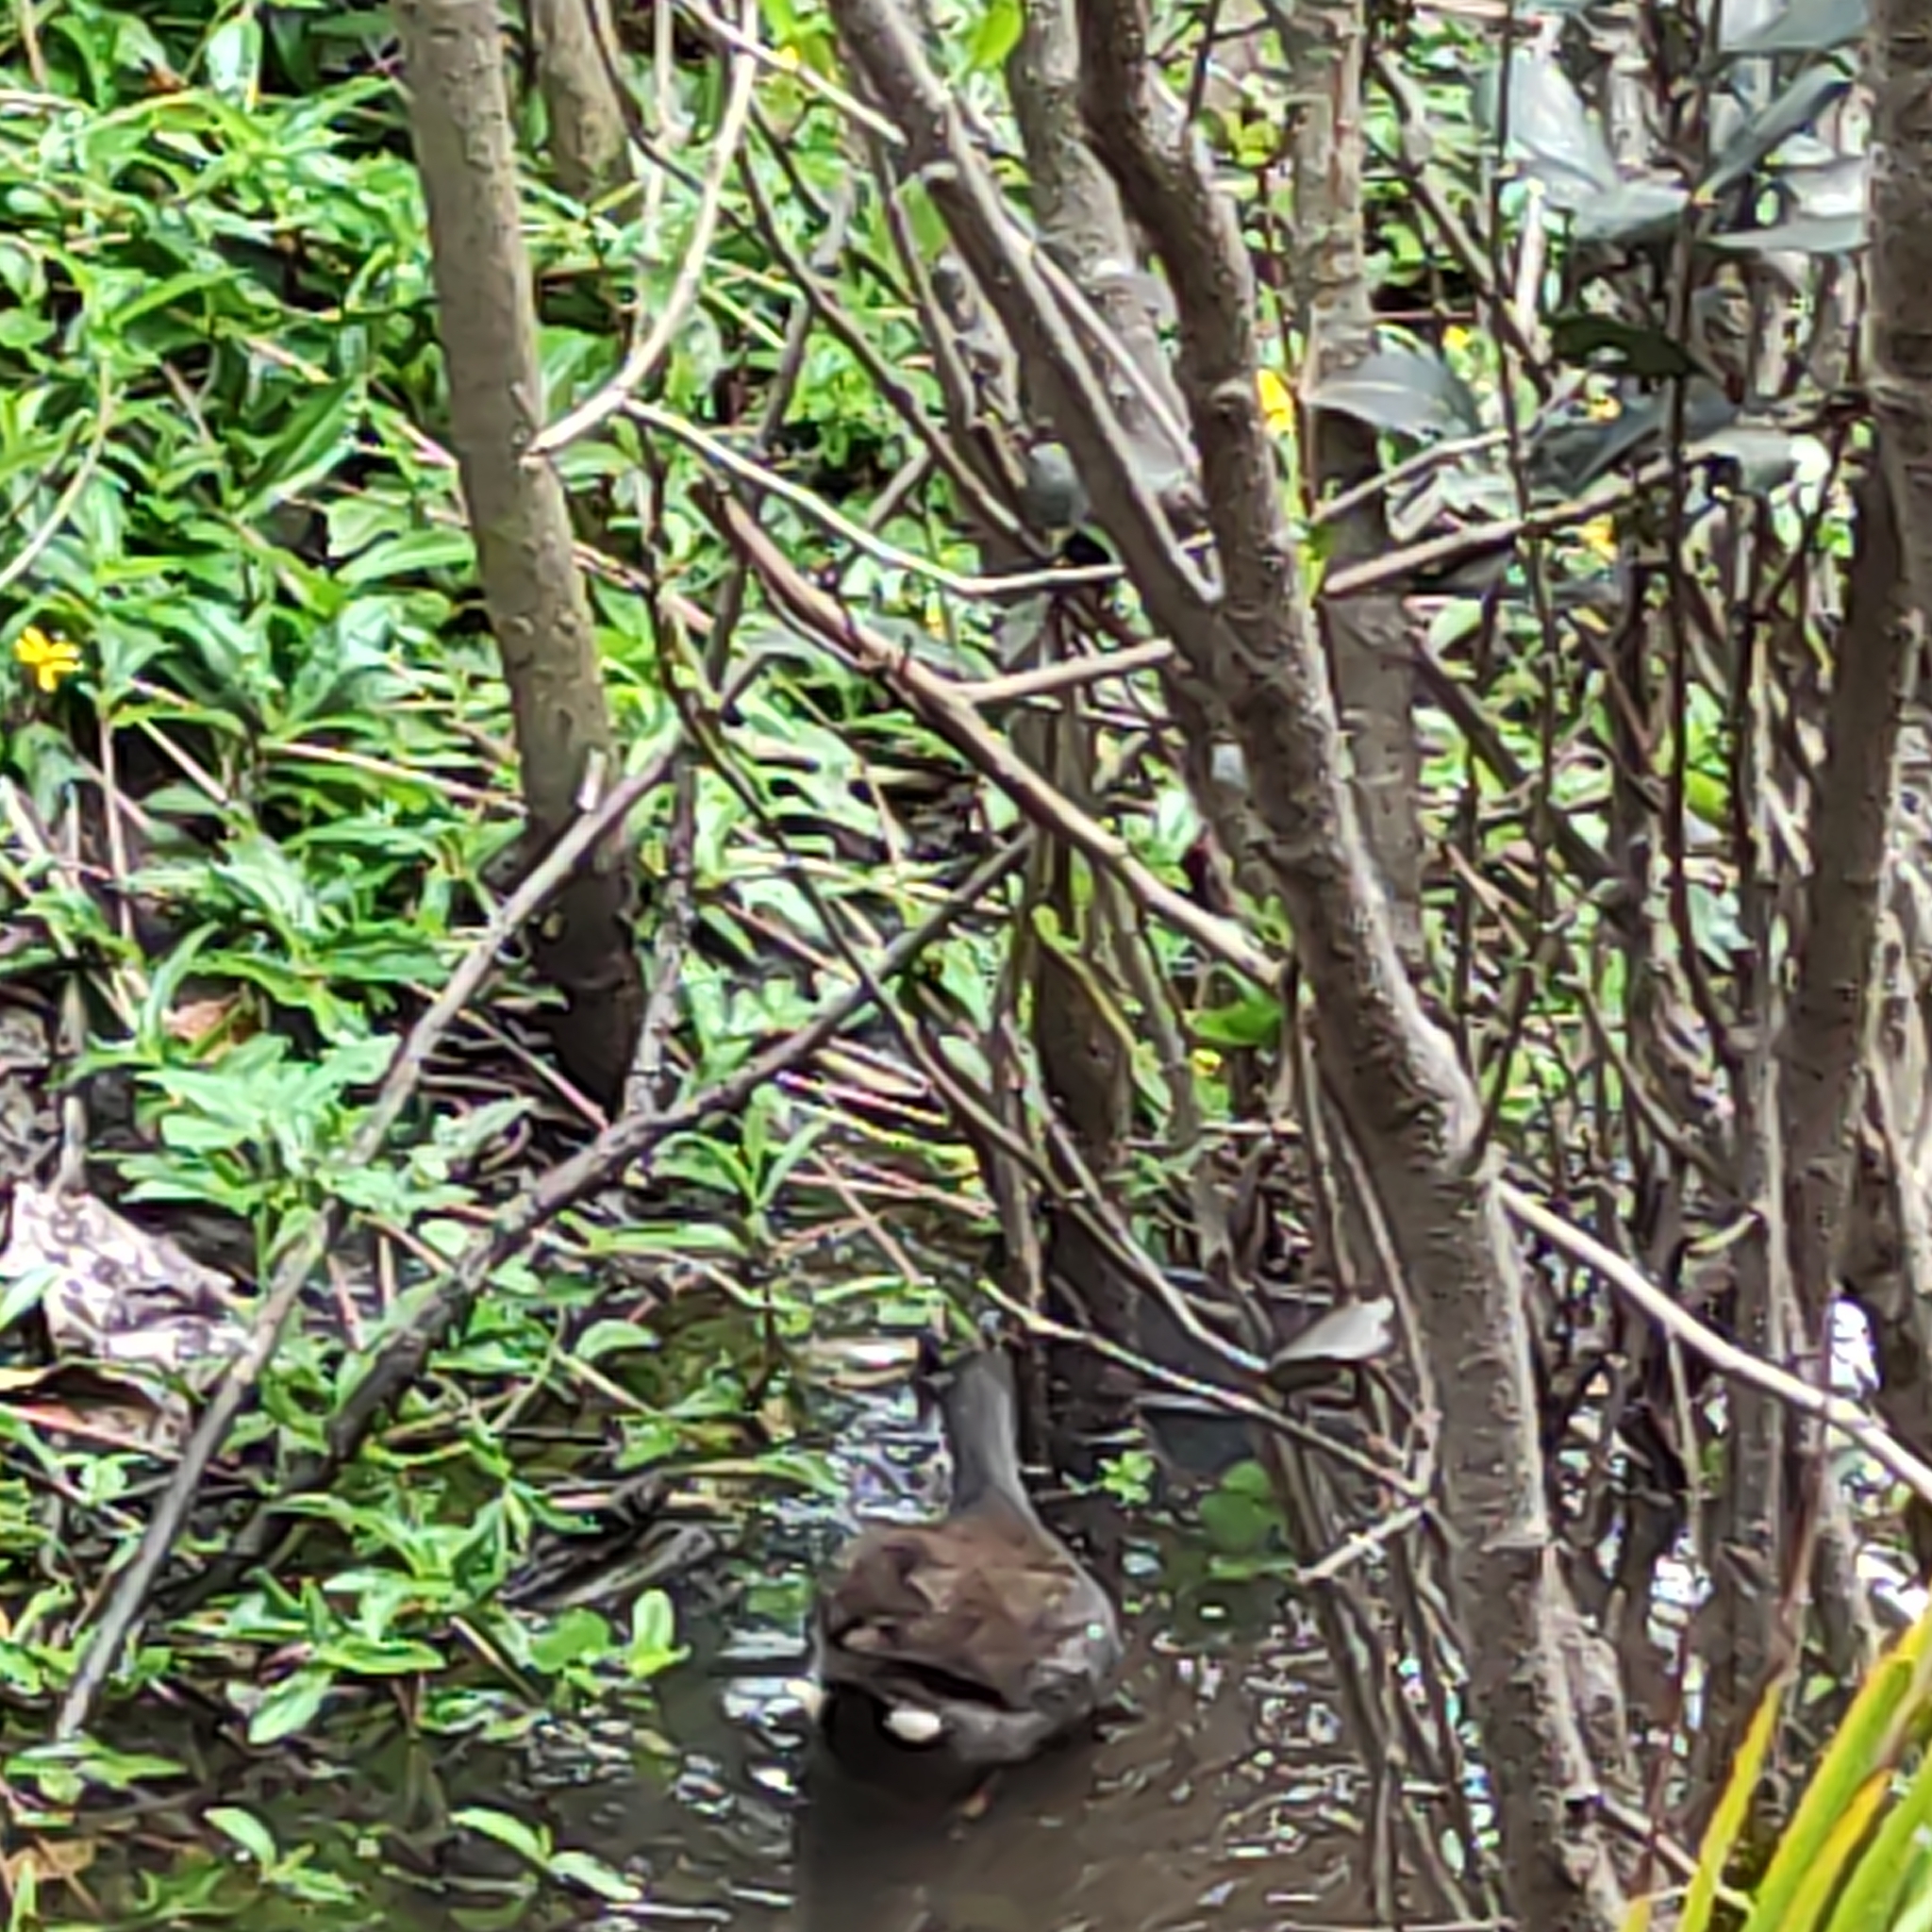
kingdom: Animalia
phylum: Chordata
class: Aves
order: Gruiformes
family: Rallidae
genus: Gallinula
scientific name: Gallinula tenebrosa
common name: Dusky moorhen
